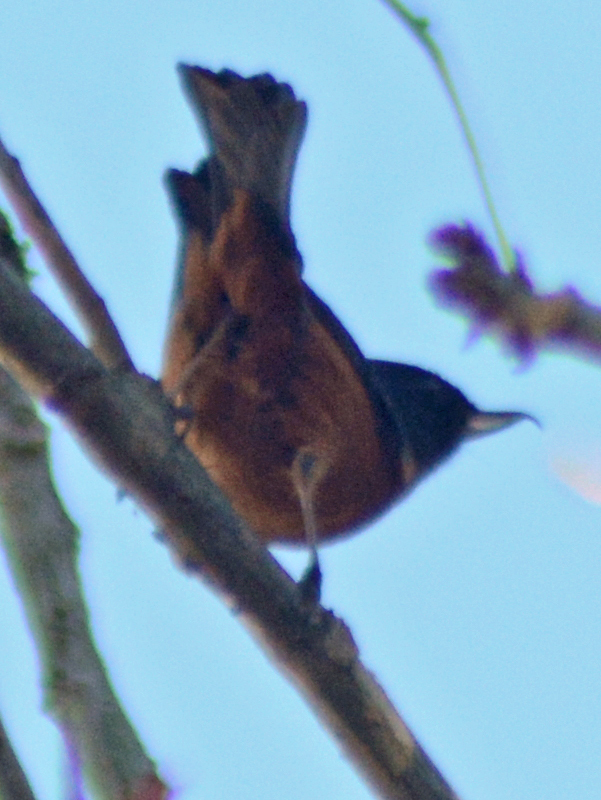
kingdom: Animalia
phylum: Chordata
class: Aves
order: Passeriformes
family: Thraupidae
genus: Diglossa
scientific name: Diglossa baritula
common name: Cinnamon-bellied flowerpiercer
